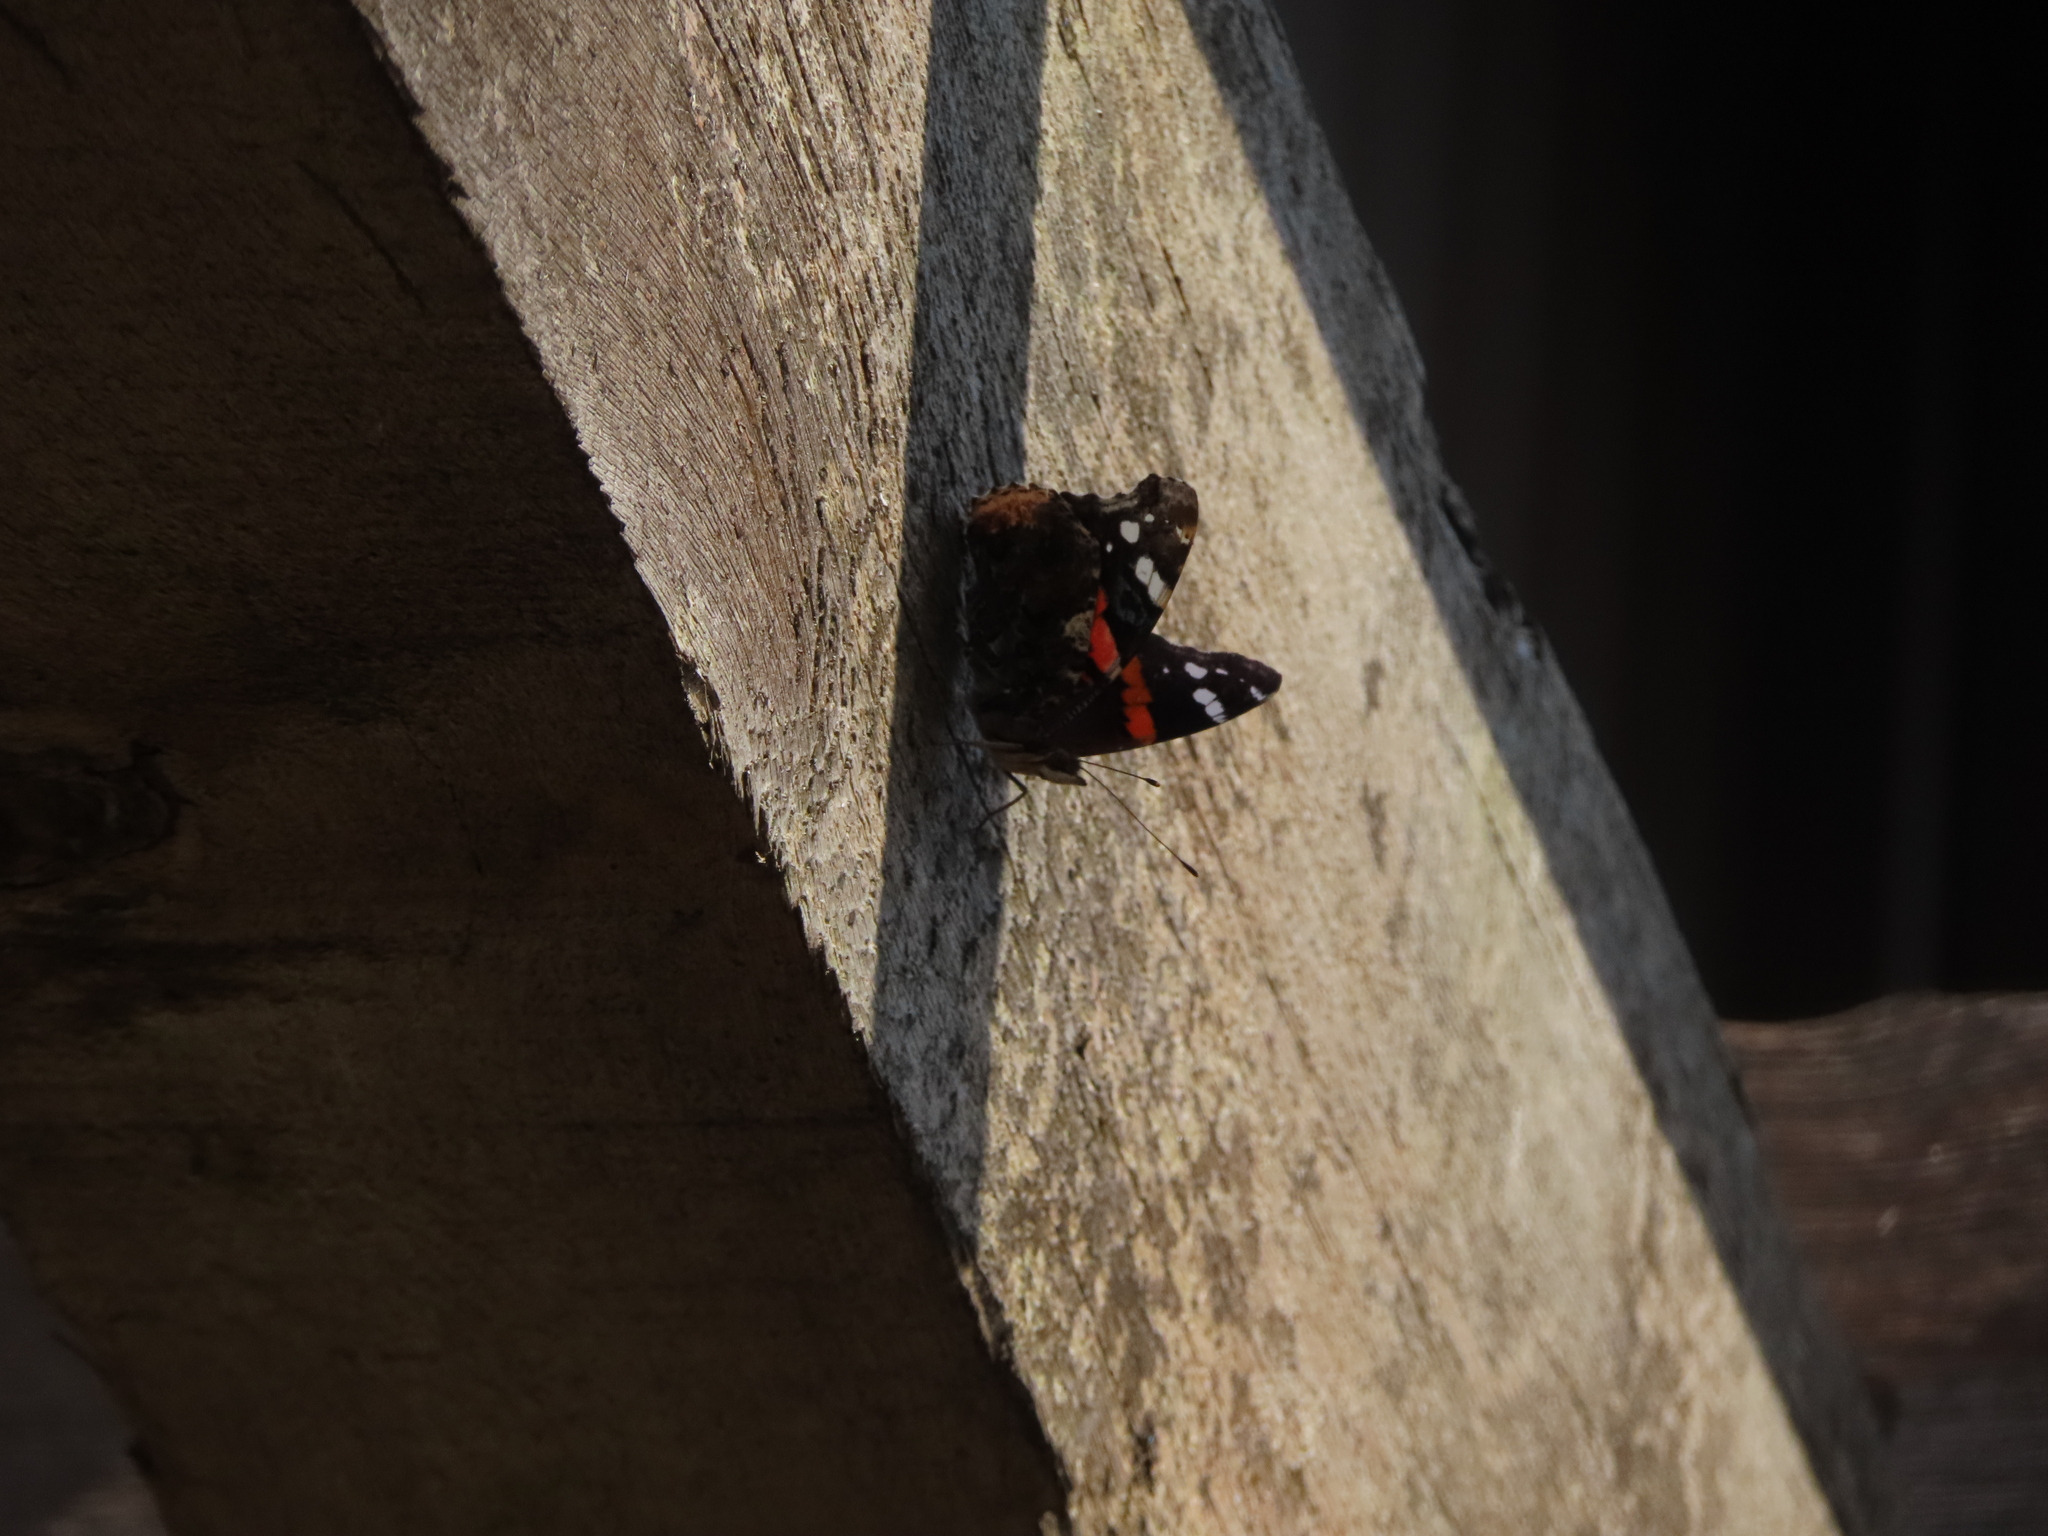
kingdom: Animalia
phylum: Arthropoda
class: Insecta
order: Lepidoptera
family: Nymphalidae
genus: Vanessa
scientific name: Vanessa atalanta
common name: Red admiral
